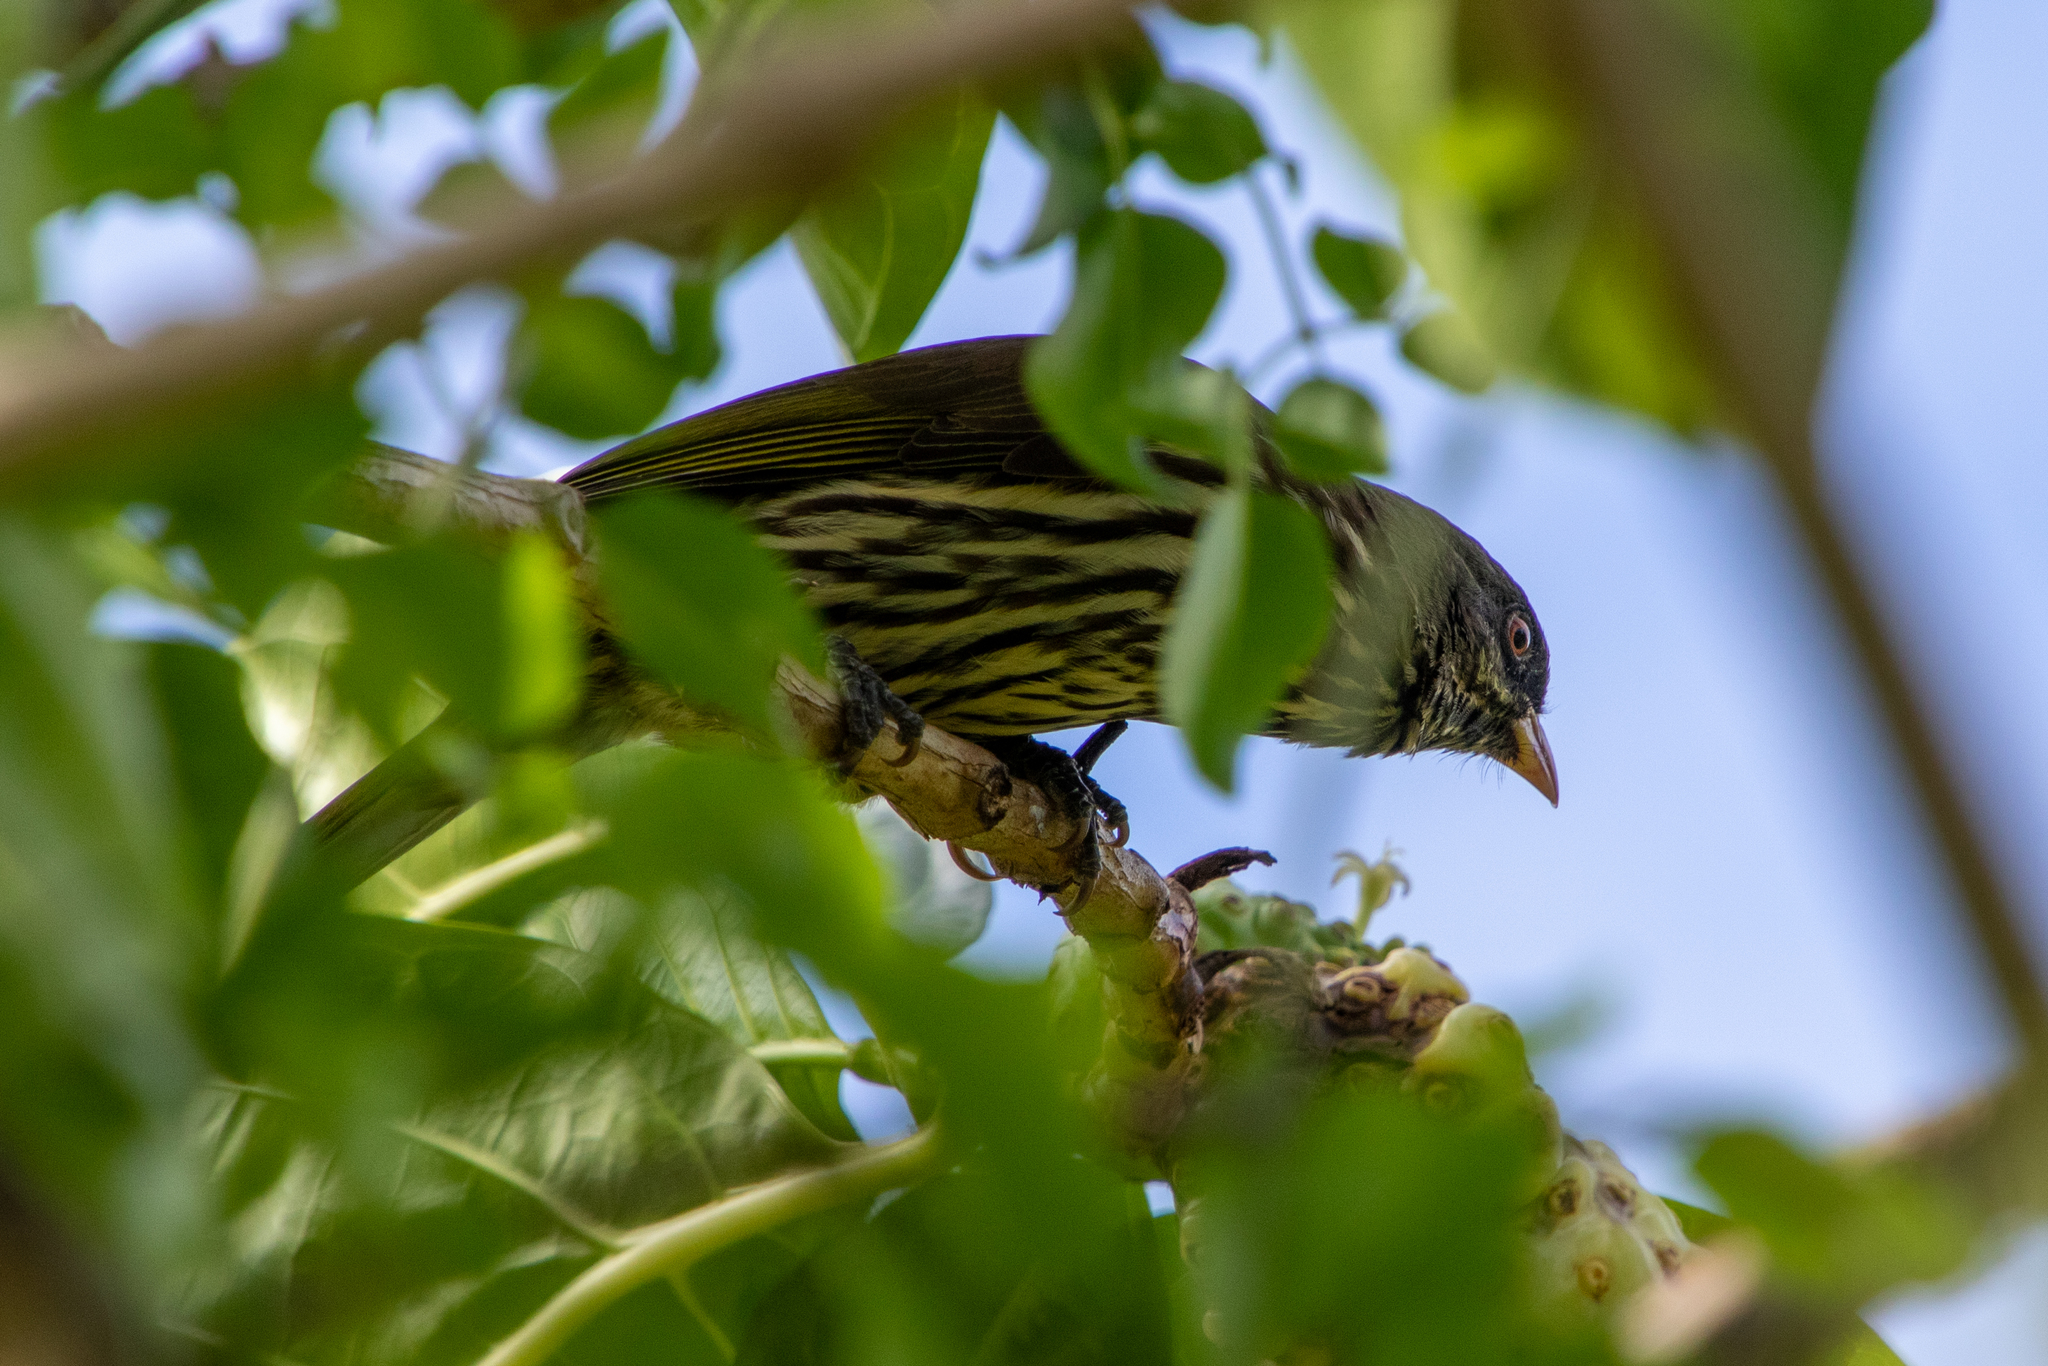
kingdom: Animalia
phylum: Chordata
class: Aves
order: Passeriformes
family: Dulidae
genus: Dulus
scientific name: Dulus dominicus
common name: Palmchat
